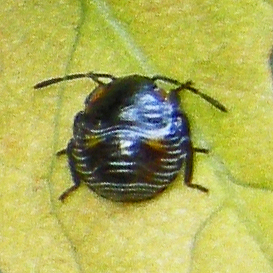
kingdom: Animalia
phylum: Arthropoda
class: Insecta
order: Hemiptera
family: Pentatomidae
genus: Chinavia
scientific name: Chinavia hilaris
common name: Green stink bug
